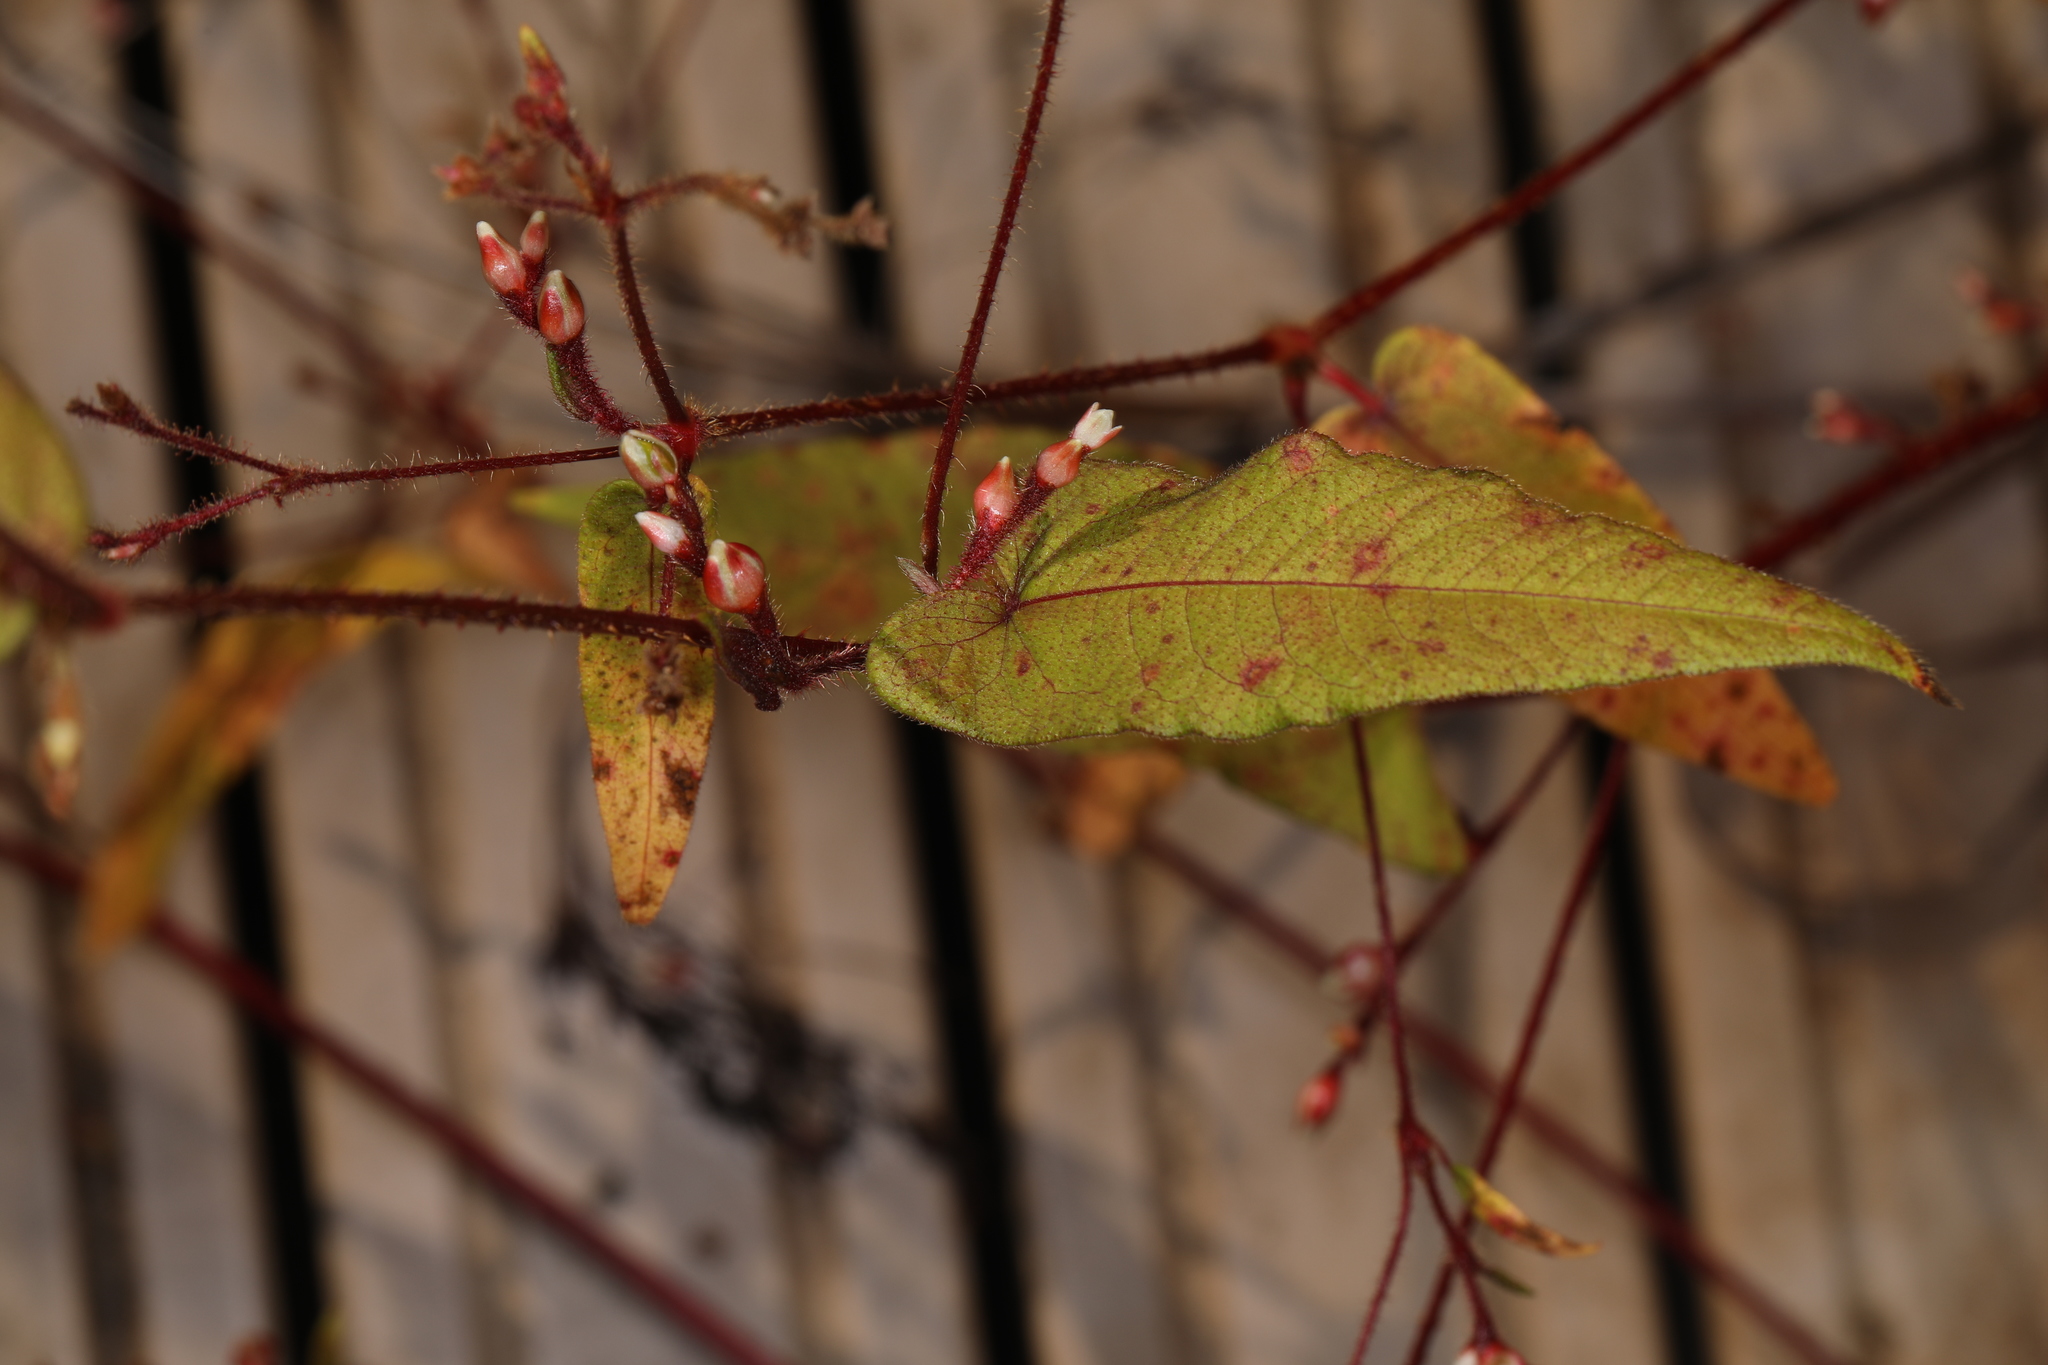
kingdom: Plantae
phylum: Tracheophyta
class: Magnoliopsida
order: Caryophyllales
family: Polygonaceae
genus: Persicaria
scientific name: Persicaria arifolia
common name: Halberd-leaved tear-thumb
